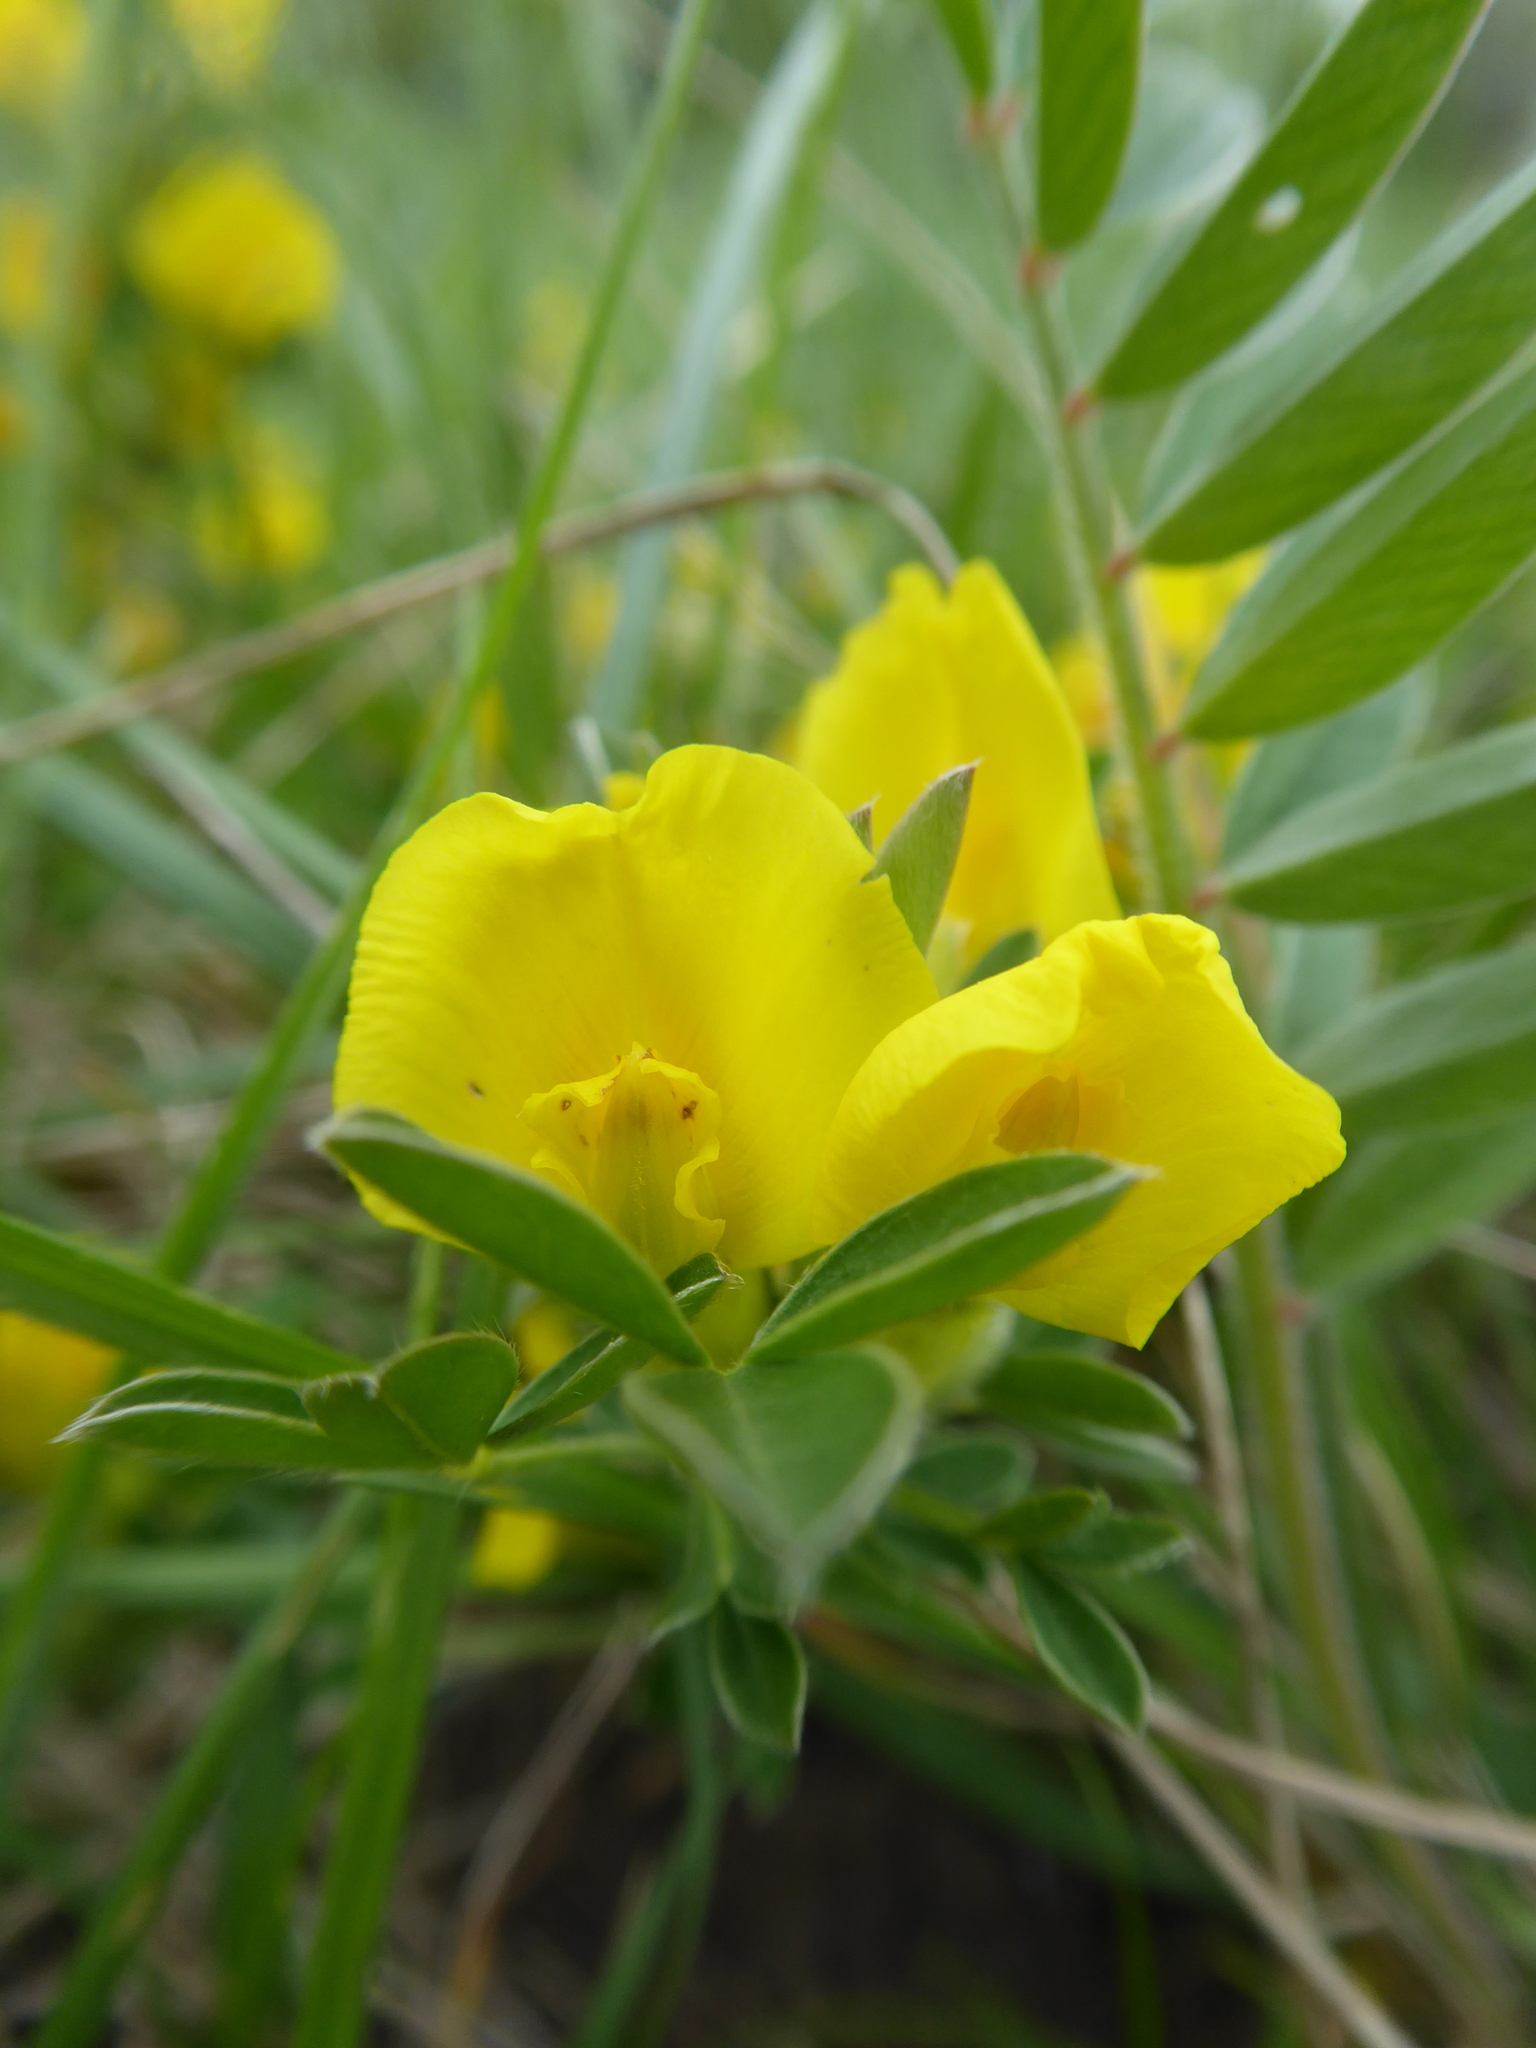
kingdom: Plantae
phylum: Tracheophyta
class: Magnoliopsida
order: Fabales
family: Fabaceae
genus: Chamaecytisus
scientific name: Chamaecytisus ratisbonensis
